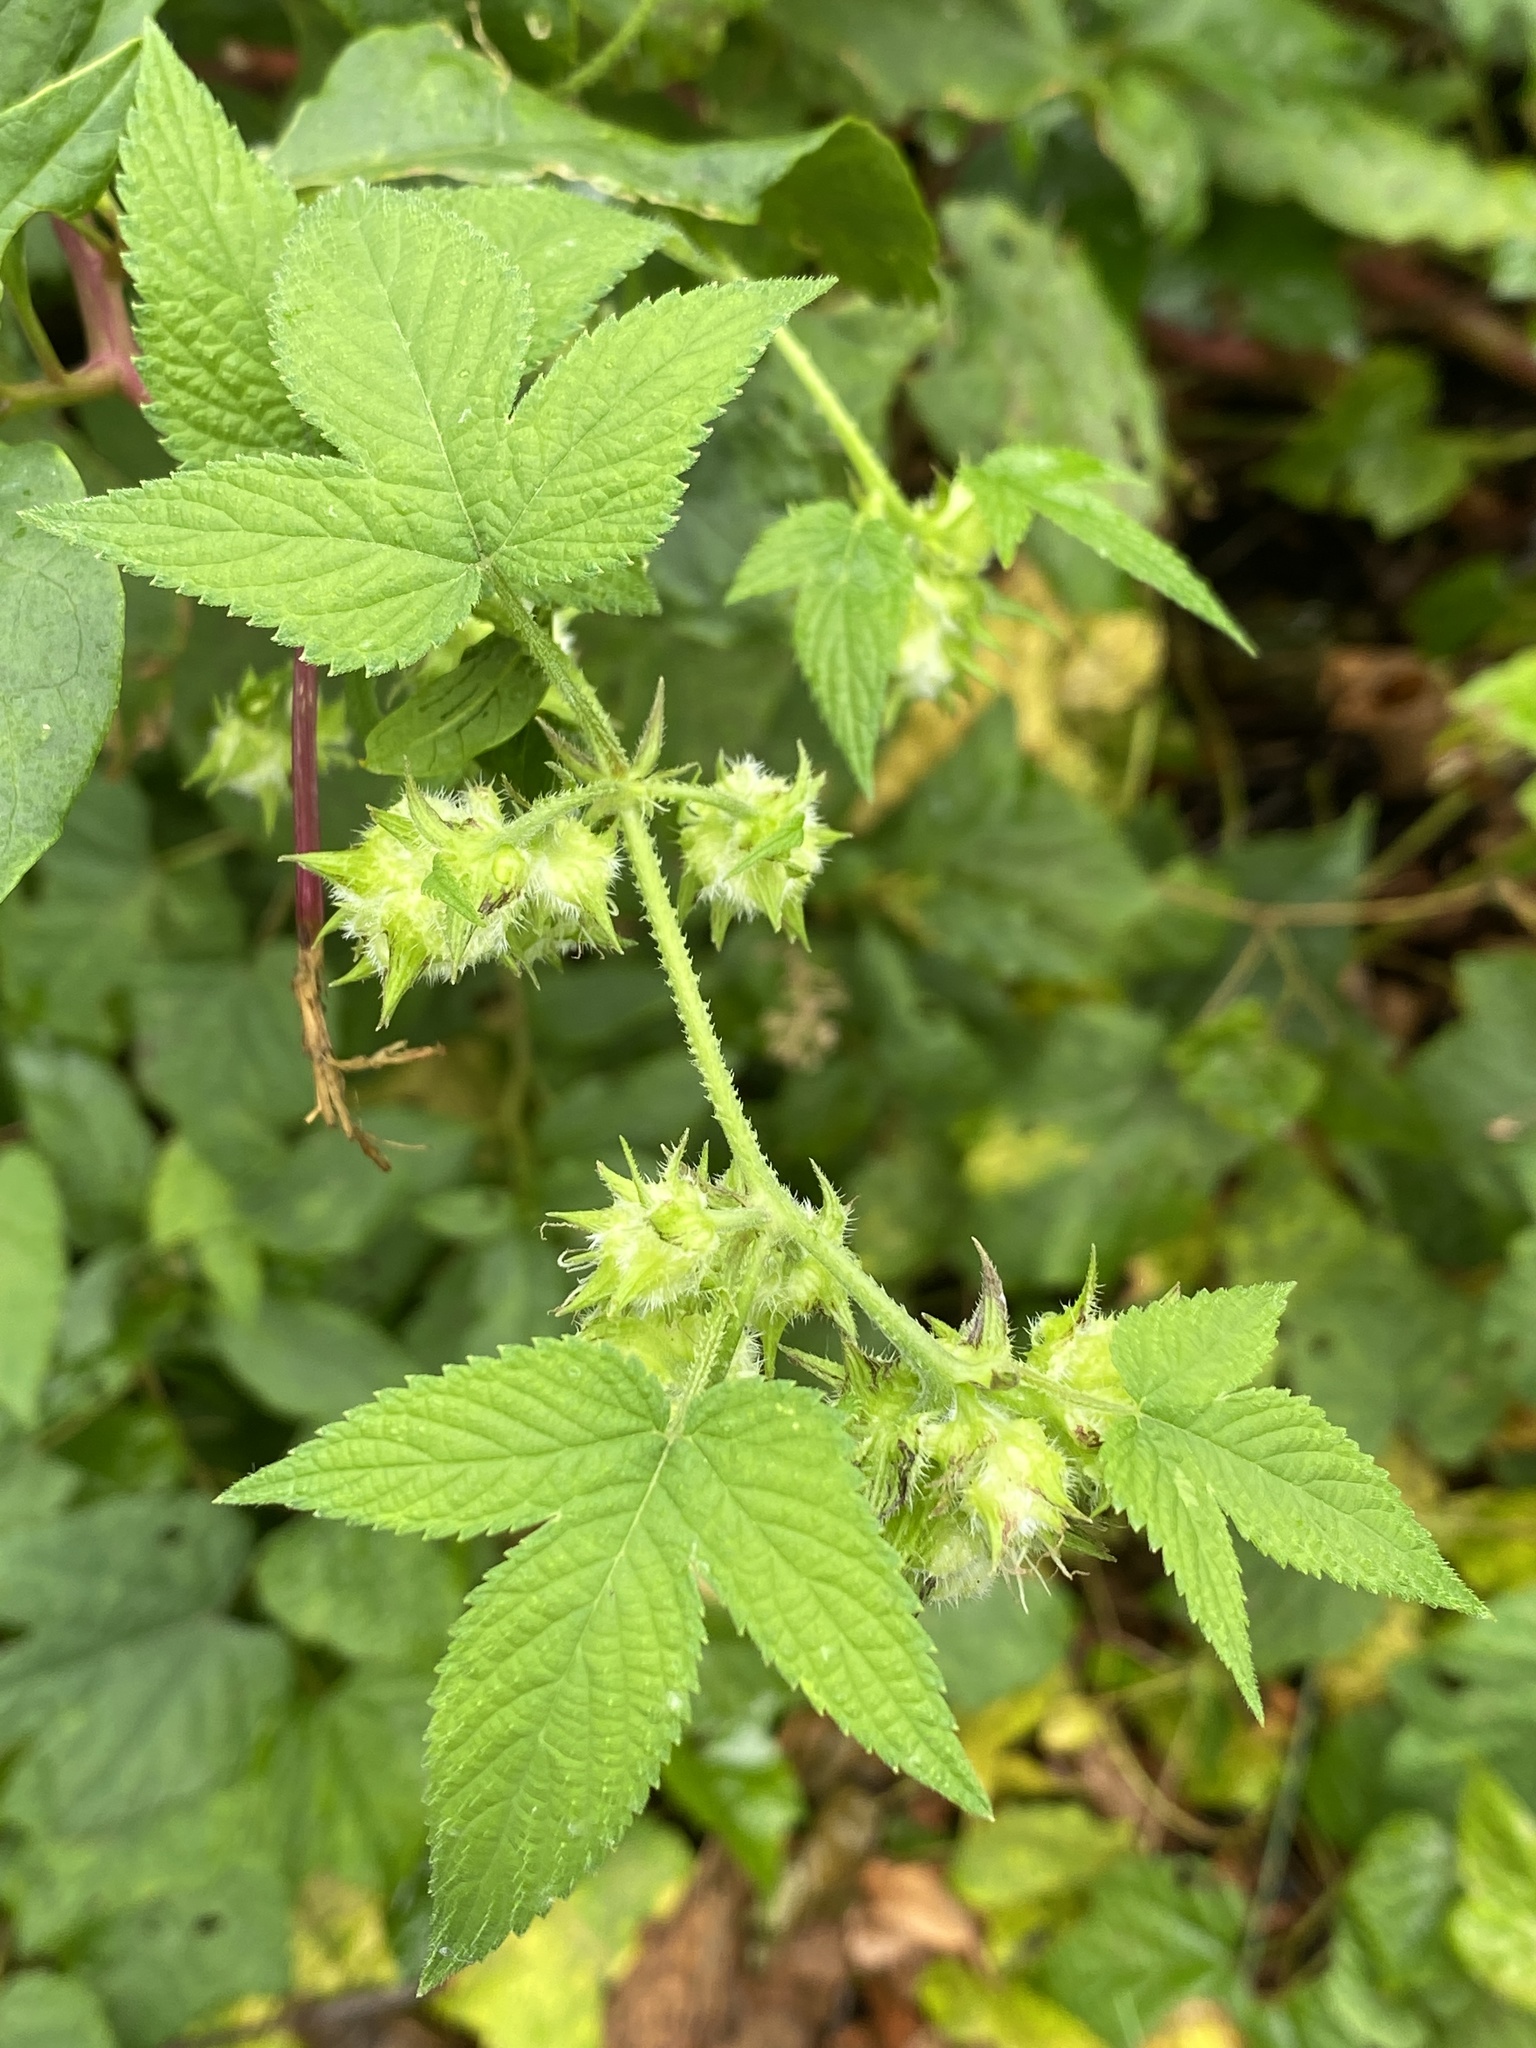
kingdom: Plantae
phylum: Tracheophyta
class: Magnoliopsida
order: Rosales
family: Cannabaceae
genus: Humulus
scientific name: Humulus scandens
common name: Japanese hop
